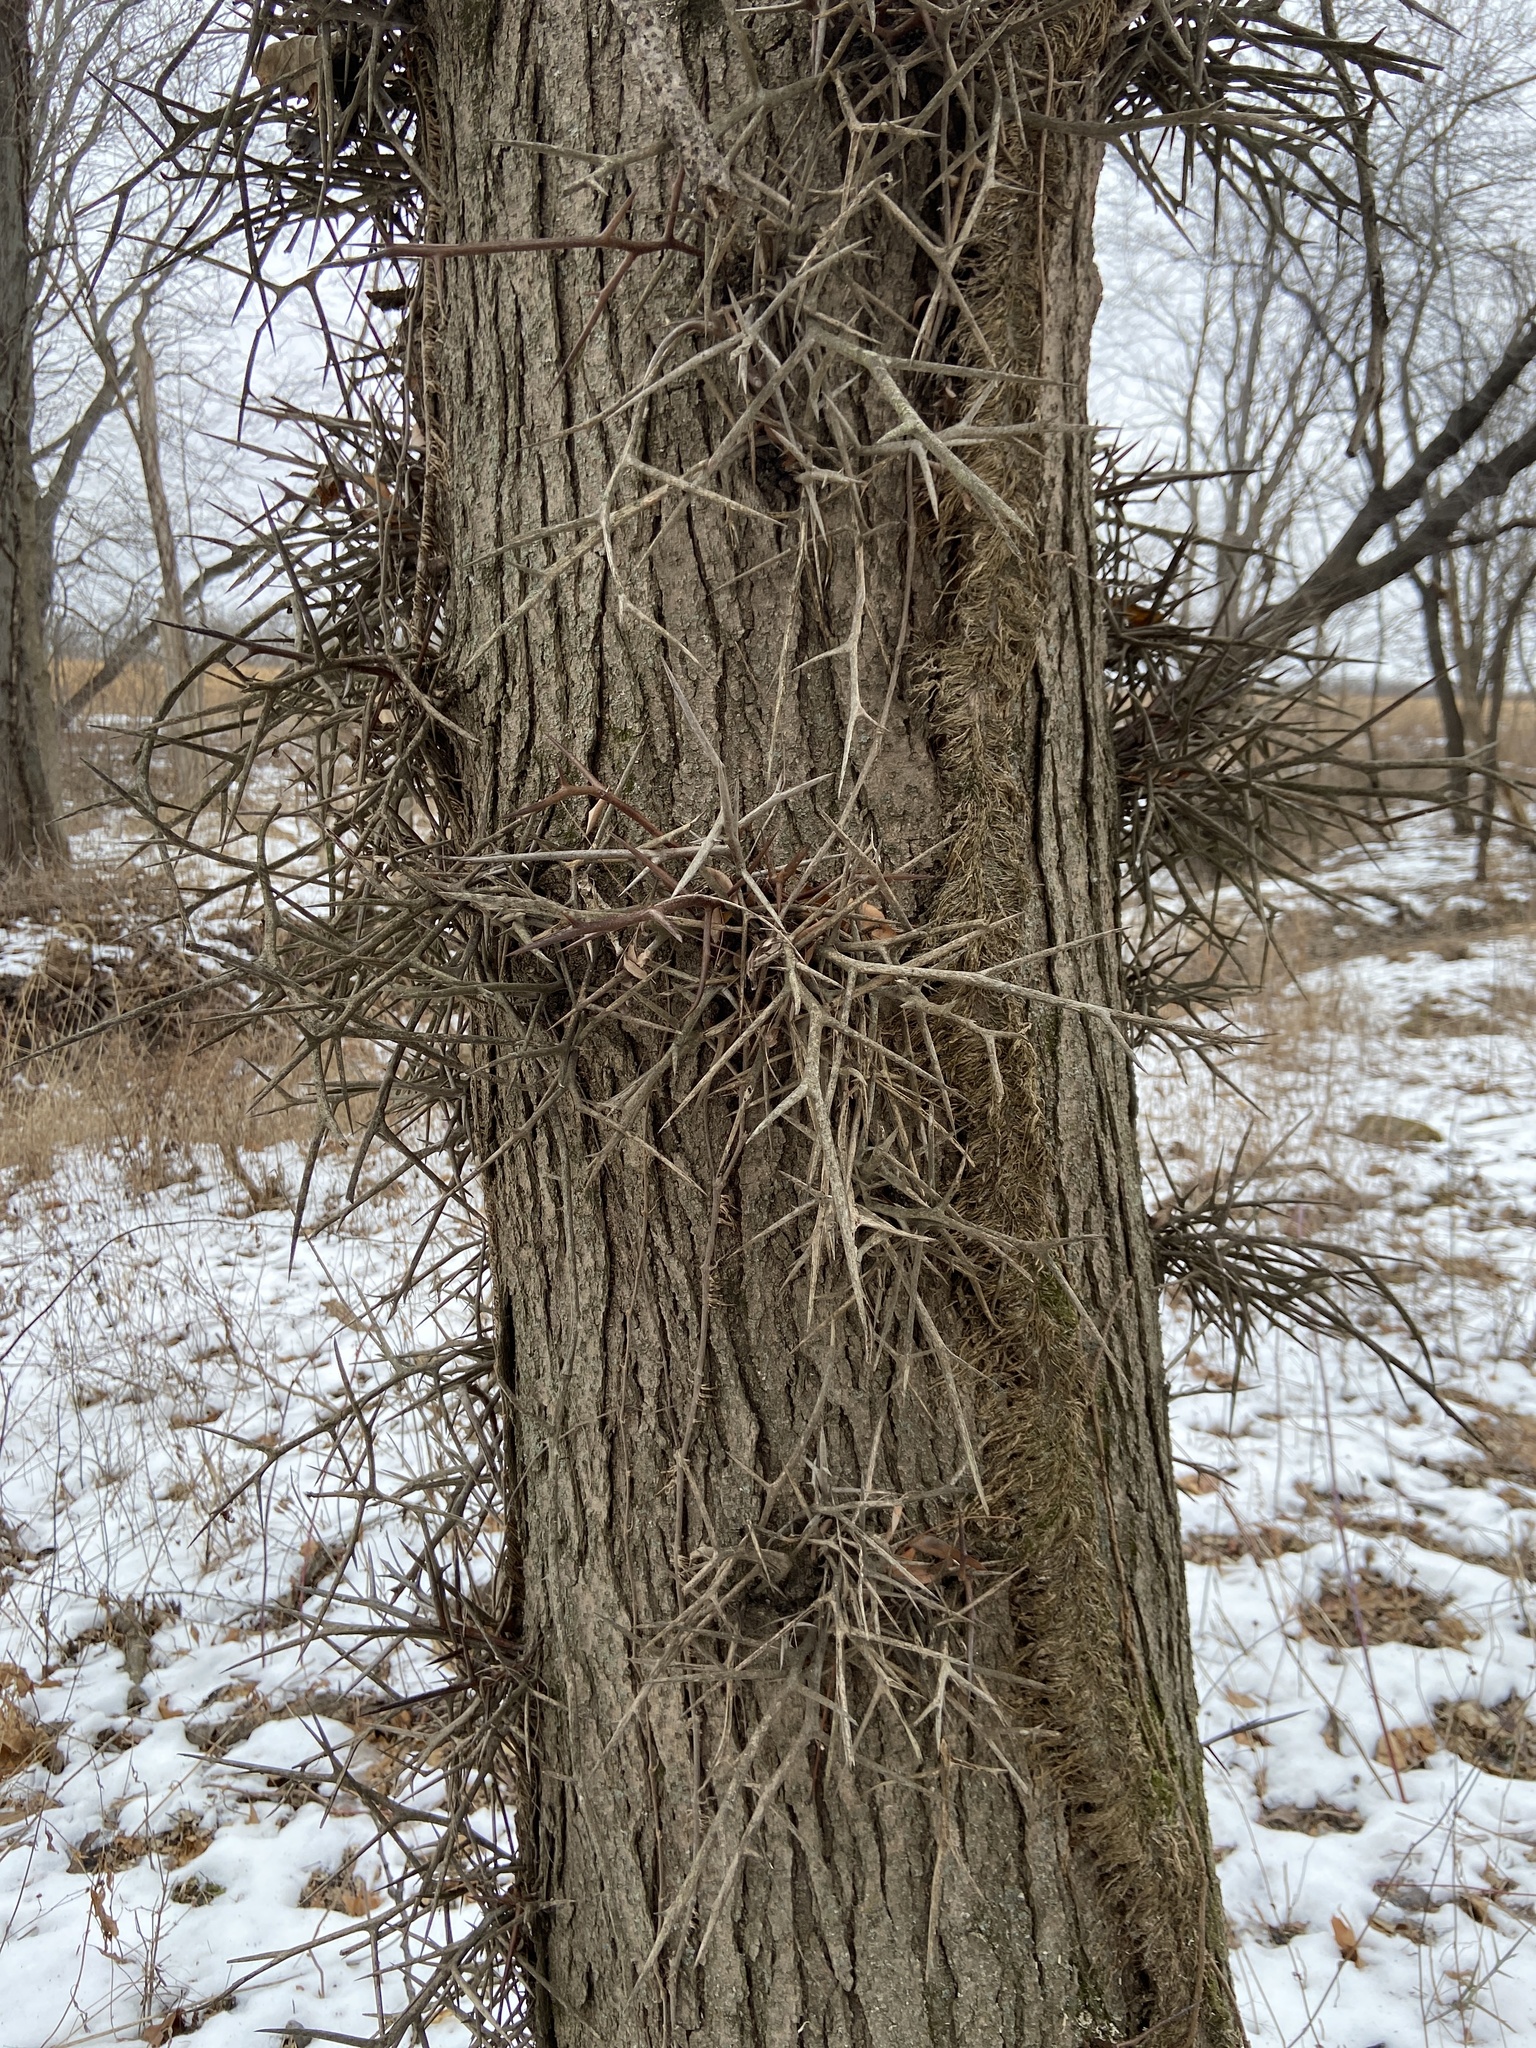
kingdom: Plantae
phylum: Tracheophyta
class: Magnoliopsida
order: Fabales
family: Fabaceae
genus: Gleditsia
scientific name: Gleditsia triacanthos
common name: Common honeylocust
